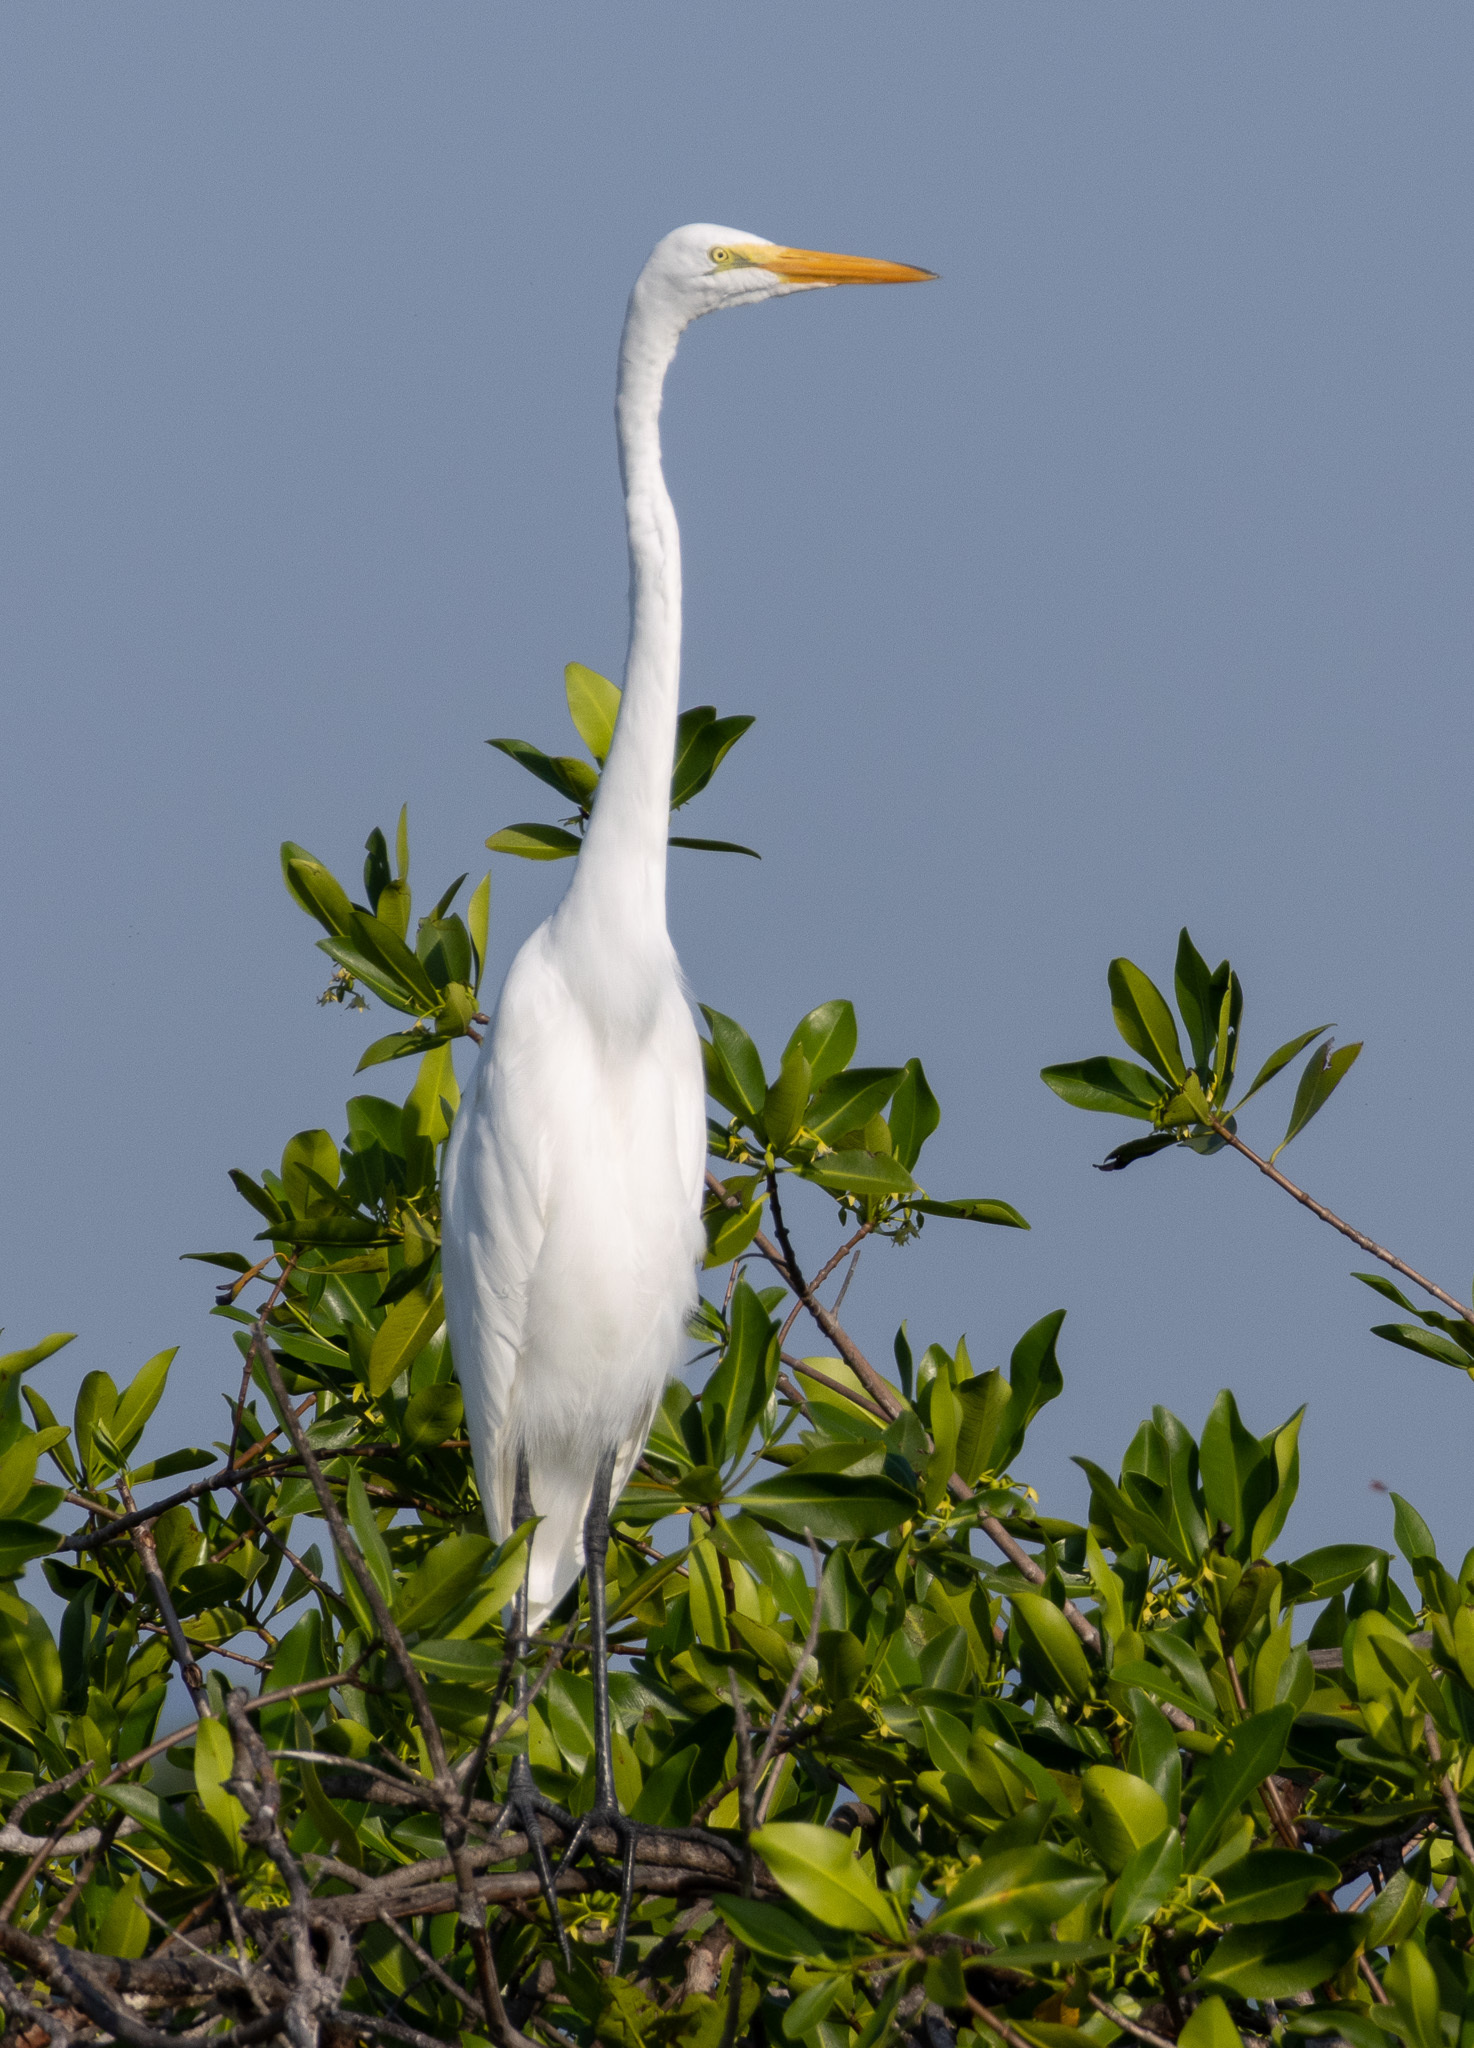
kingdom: Animalia
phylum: Chordata
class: Aves
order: Pelecaniformes
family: Ardeidae
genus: Ardea
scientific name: Ardea alba
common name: Great egret
